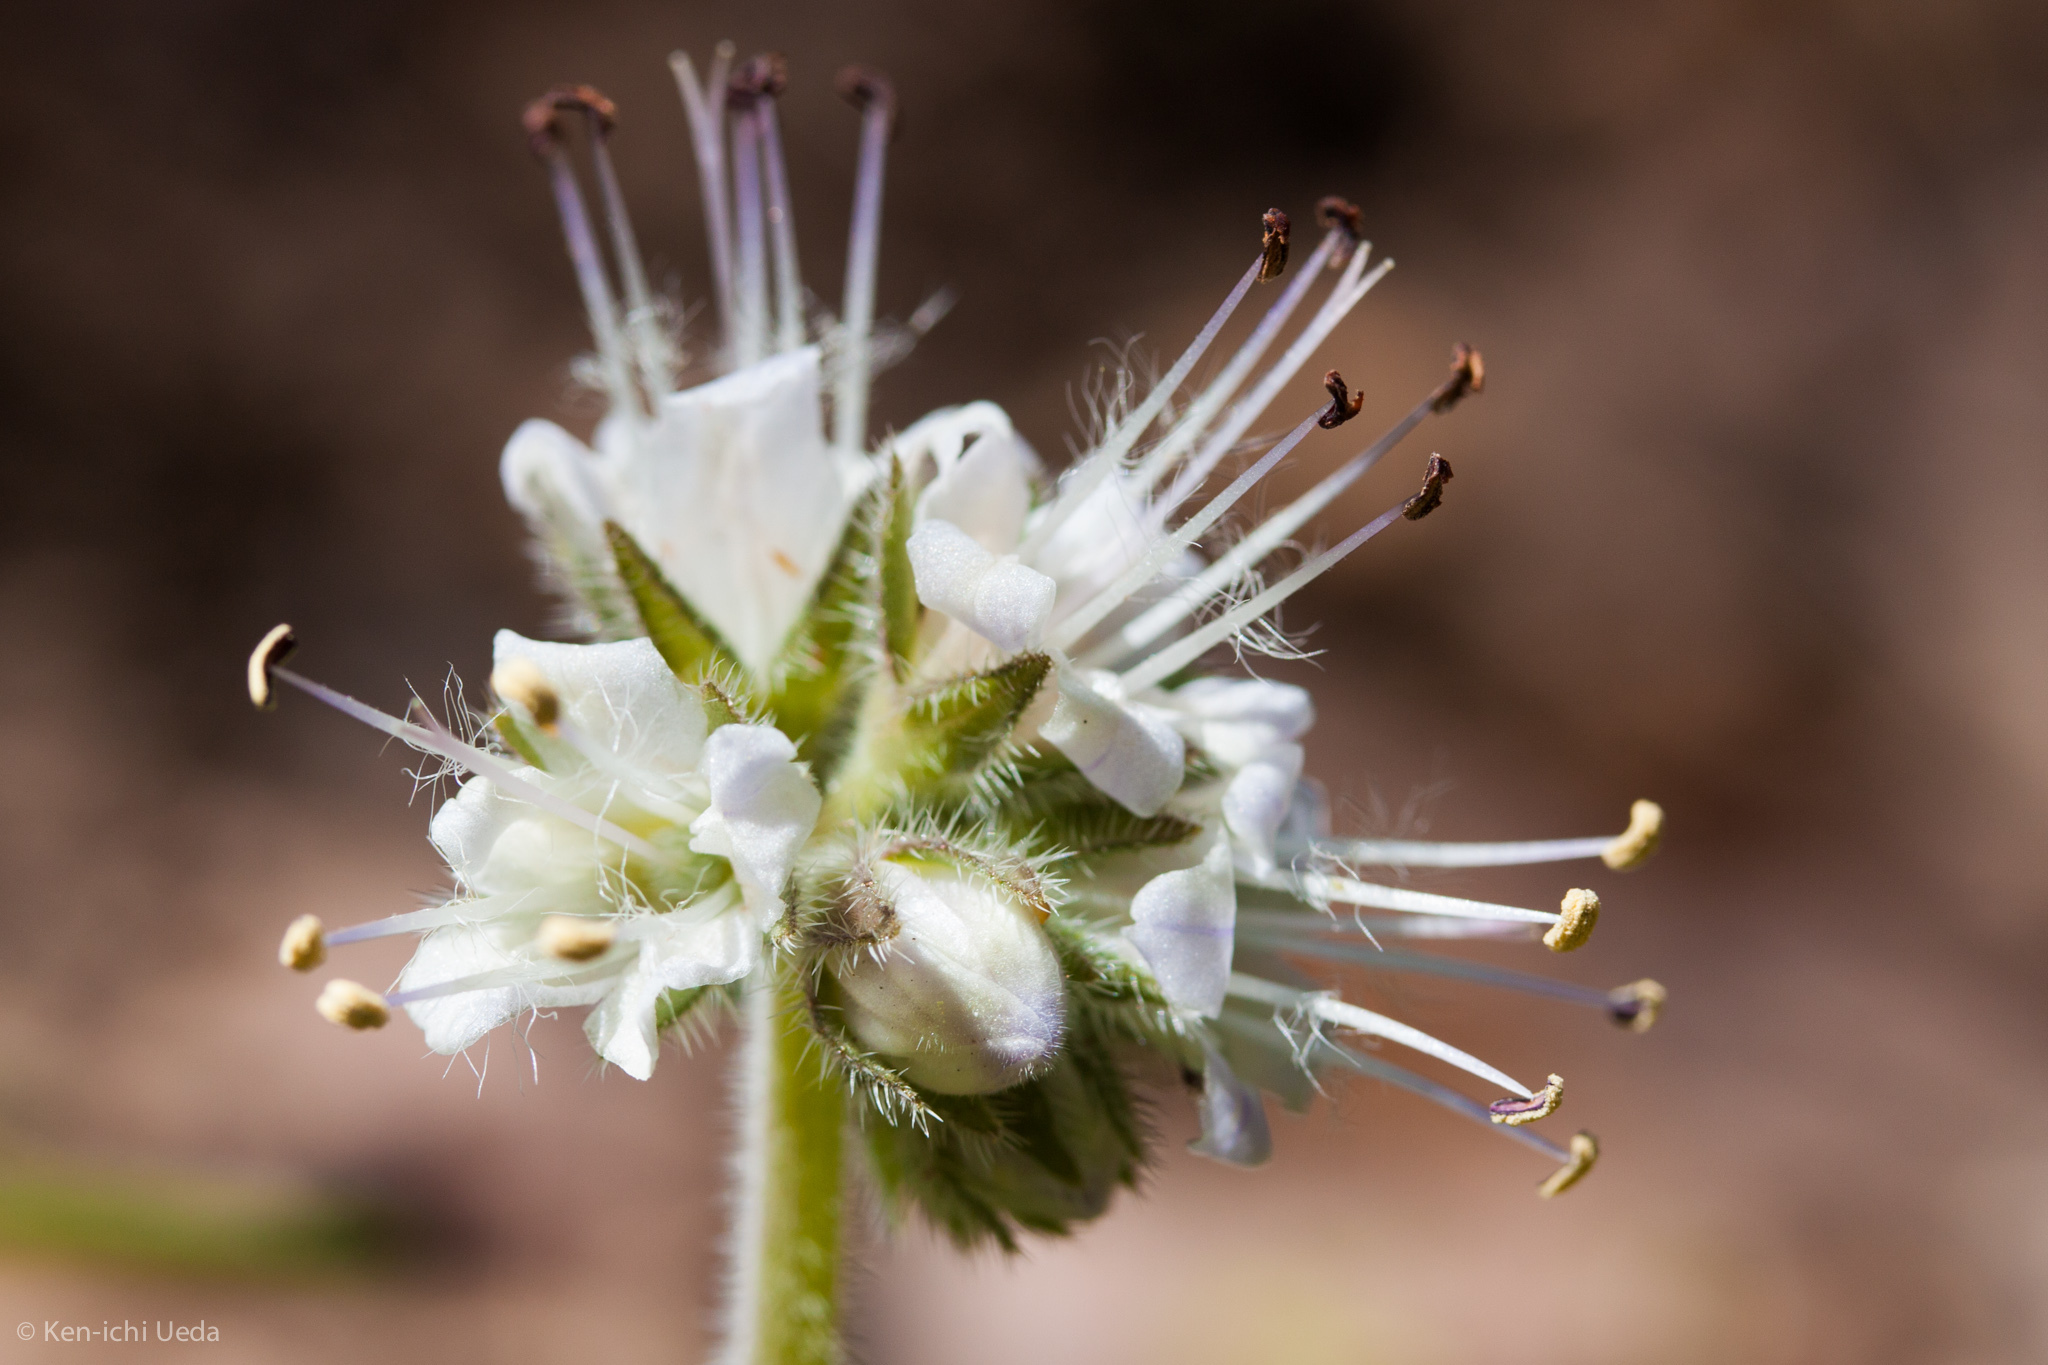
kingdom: Plantae
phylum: Tracheophyta
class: Magnoliopsida
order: Boraginales
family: Hydrophyllaceae
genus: Hydrophyllum
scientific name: Hydrophyllum occidentale
